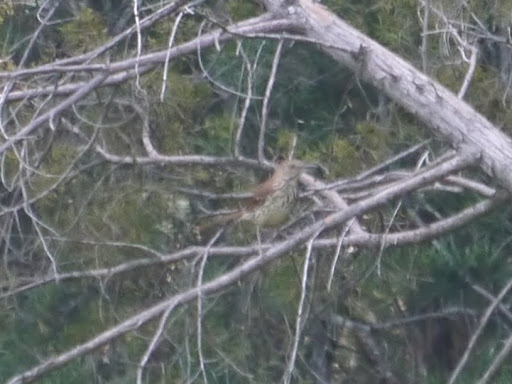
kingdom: Animalia
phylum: Chordata
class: Aves
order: Passeriformes
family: Mimidae
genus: Toxostoma
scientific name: Toxostoma rufum
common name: Brown thrasher
